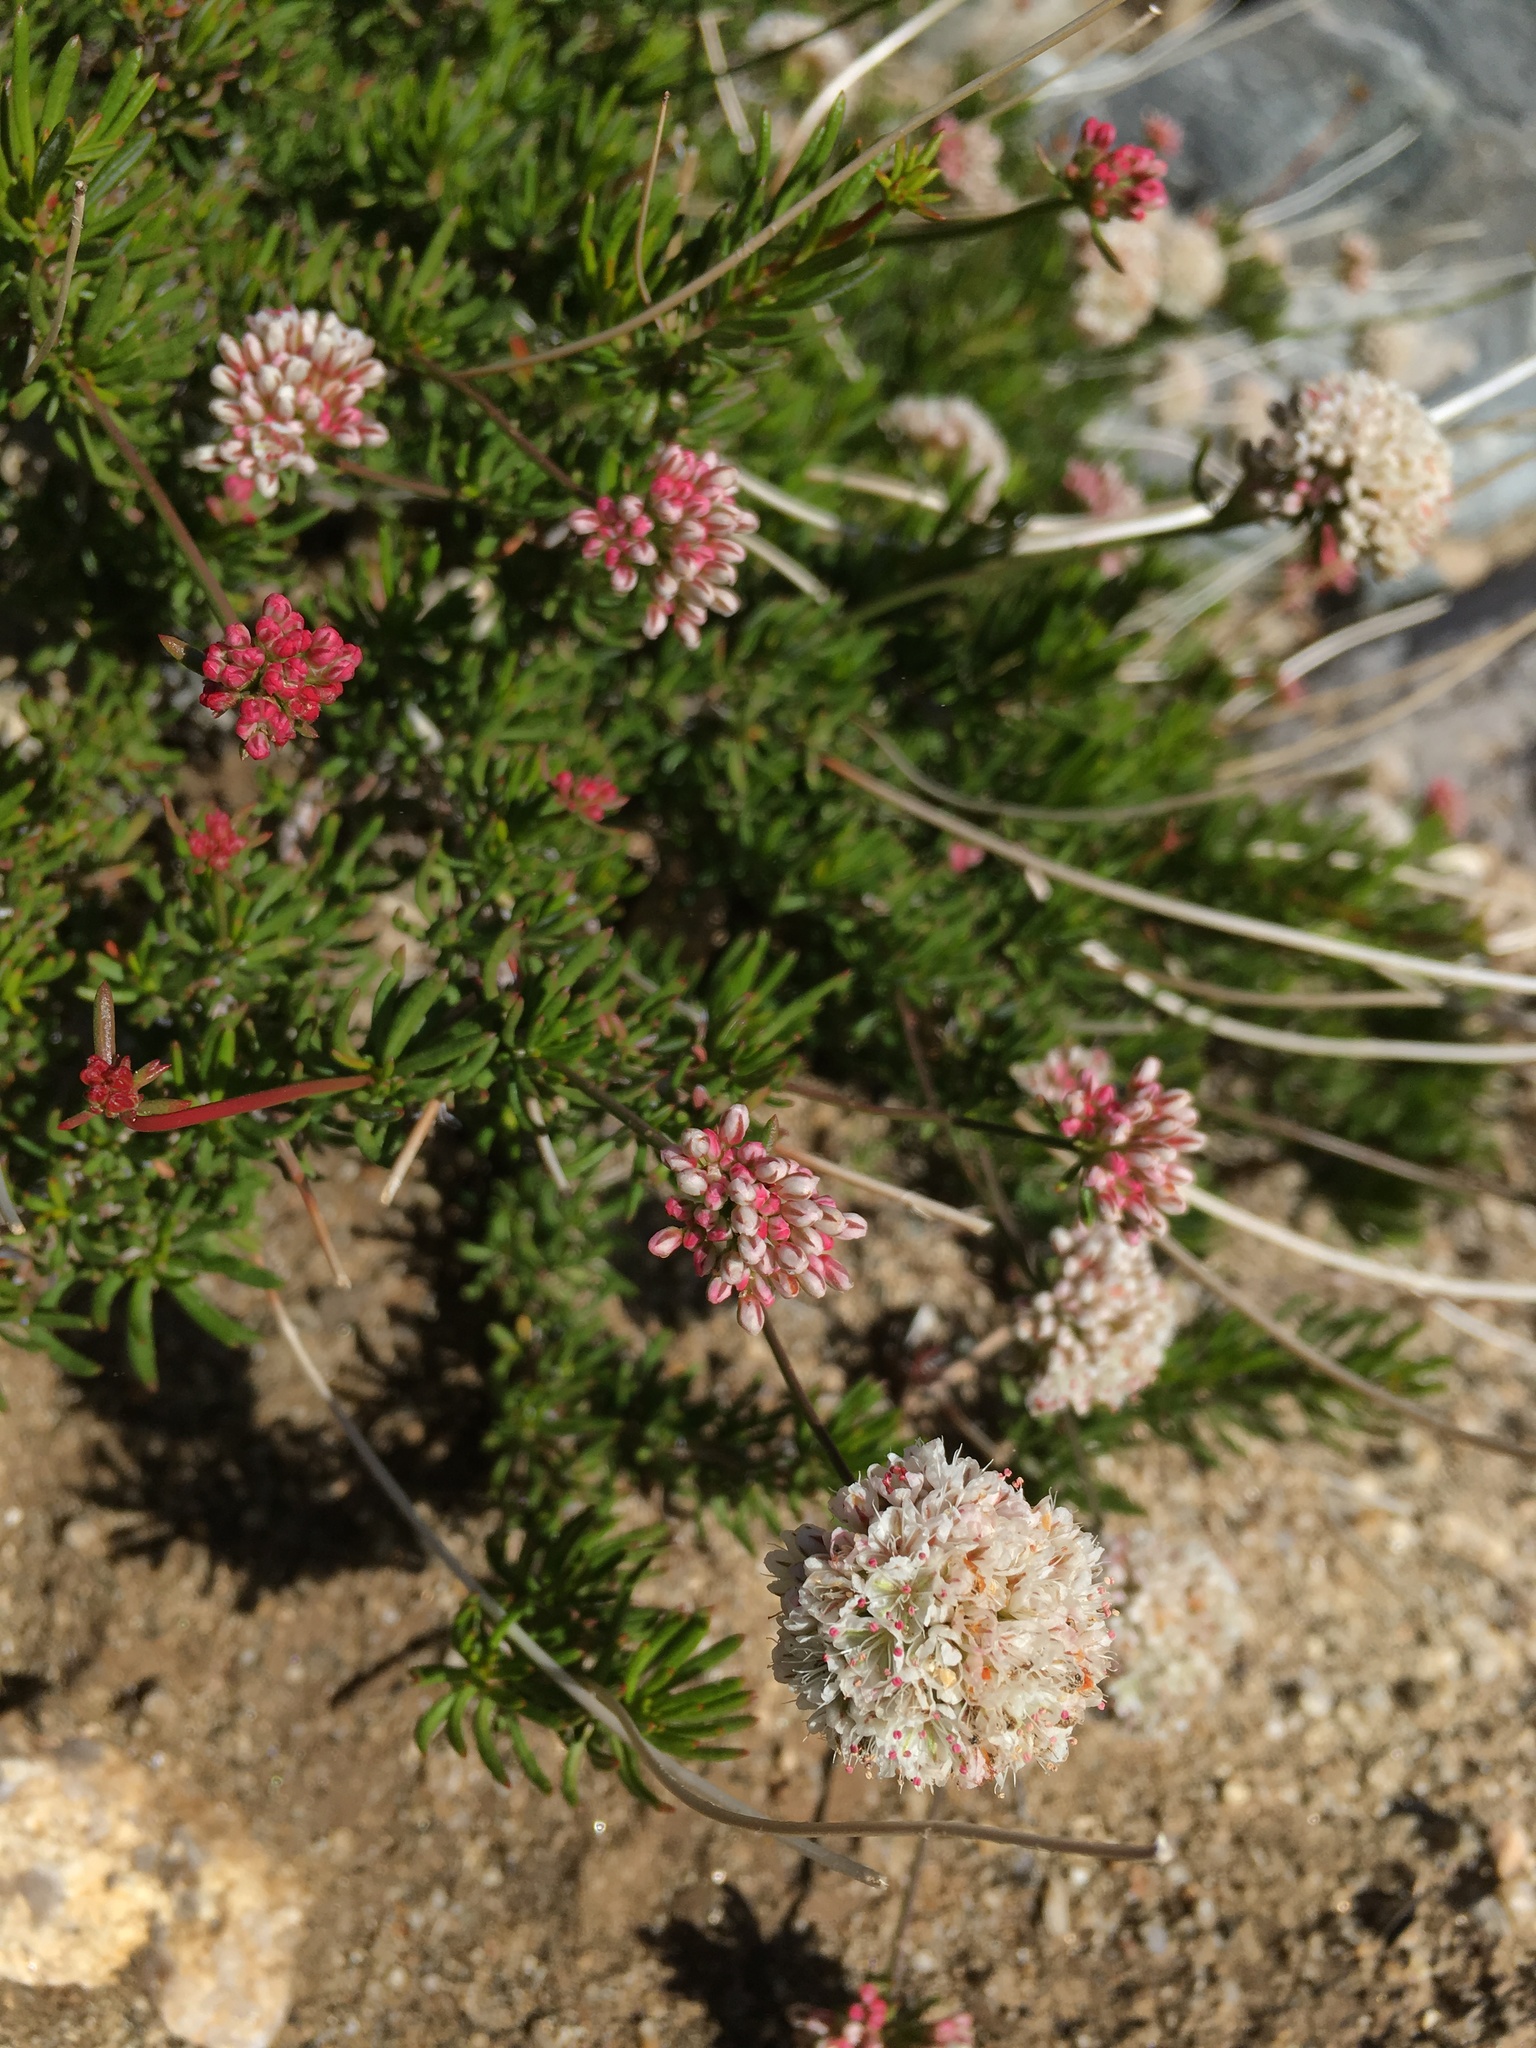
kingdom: Plantae
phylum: Tracheophyta
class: Magnoliopsida
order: Caryophyllales
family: Polygonaceae
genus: Eriogonum
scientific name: Eriogonum fasciculatum
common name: California wild buckwheat
